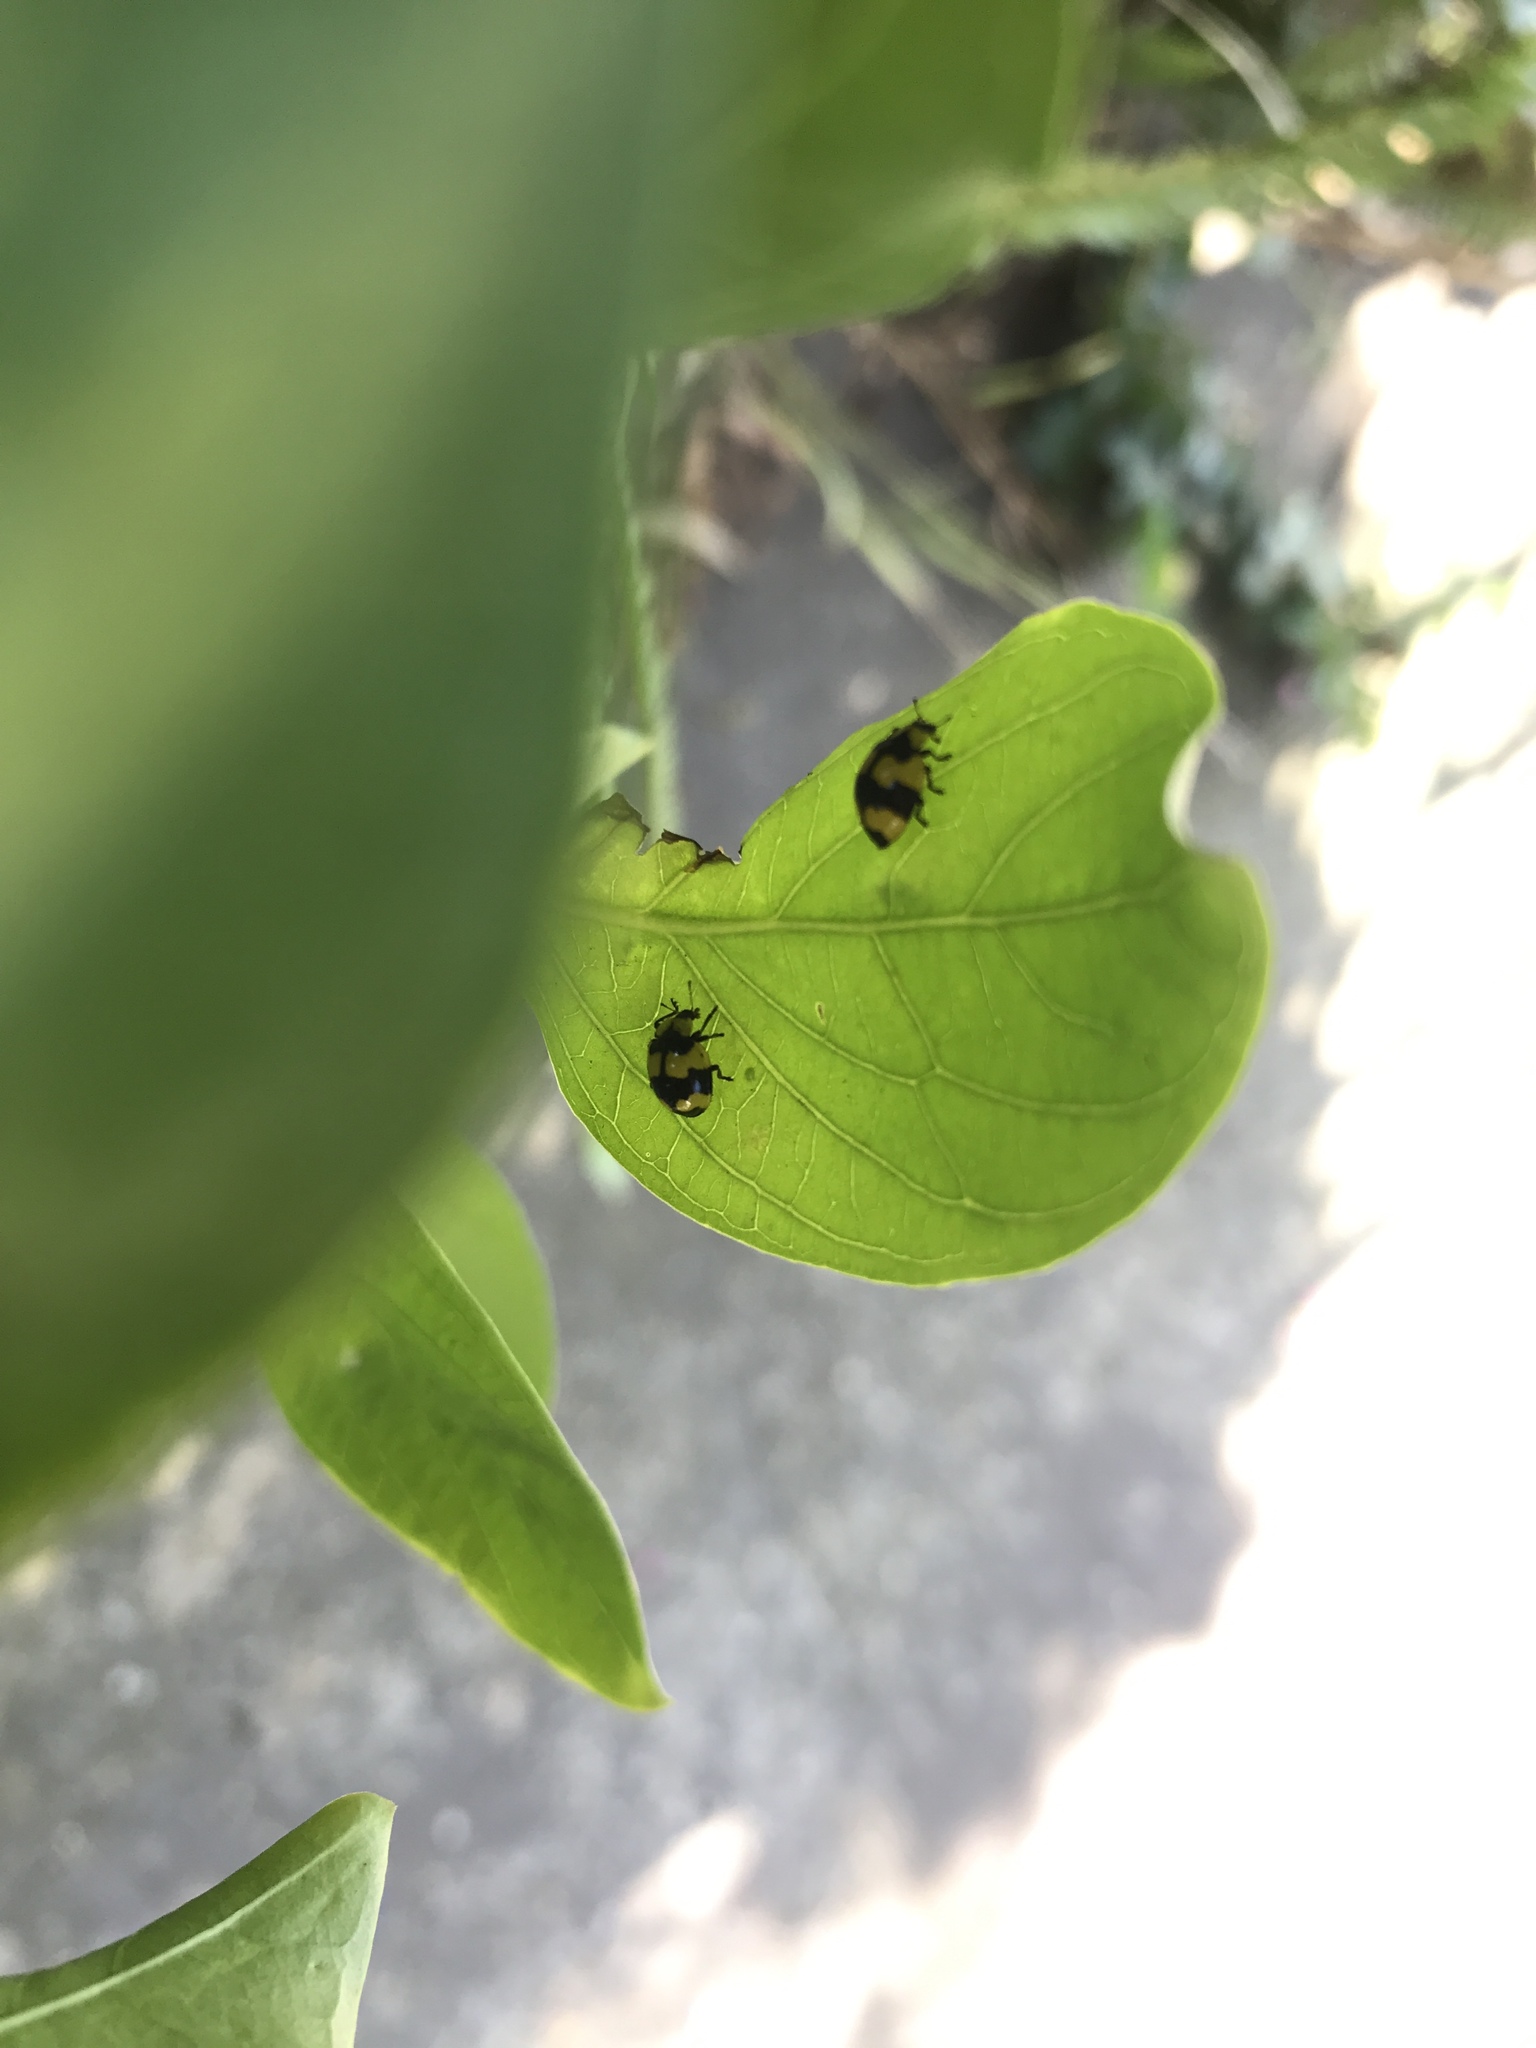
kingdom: Animalia
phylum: Arthropoda
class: Insecta
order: Coleoptera
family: Coccinellidae
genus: Illeis
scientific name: Illeis galbula
